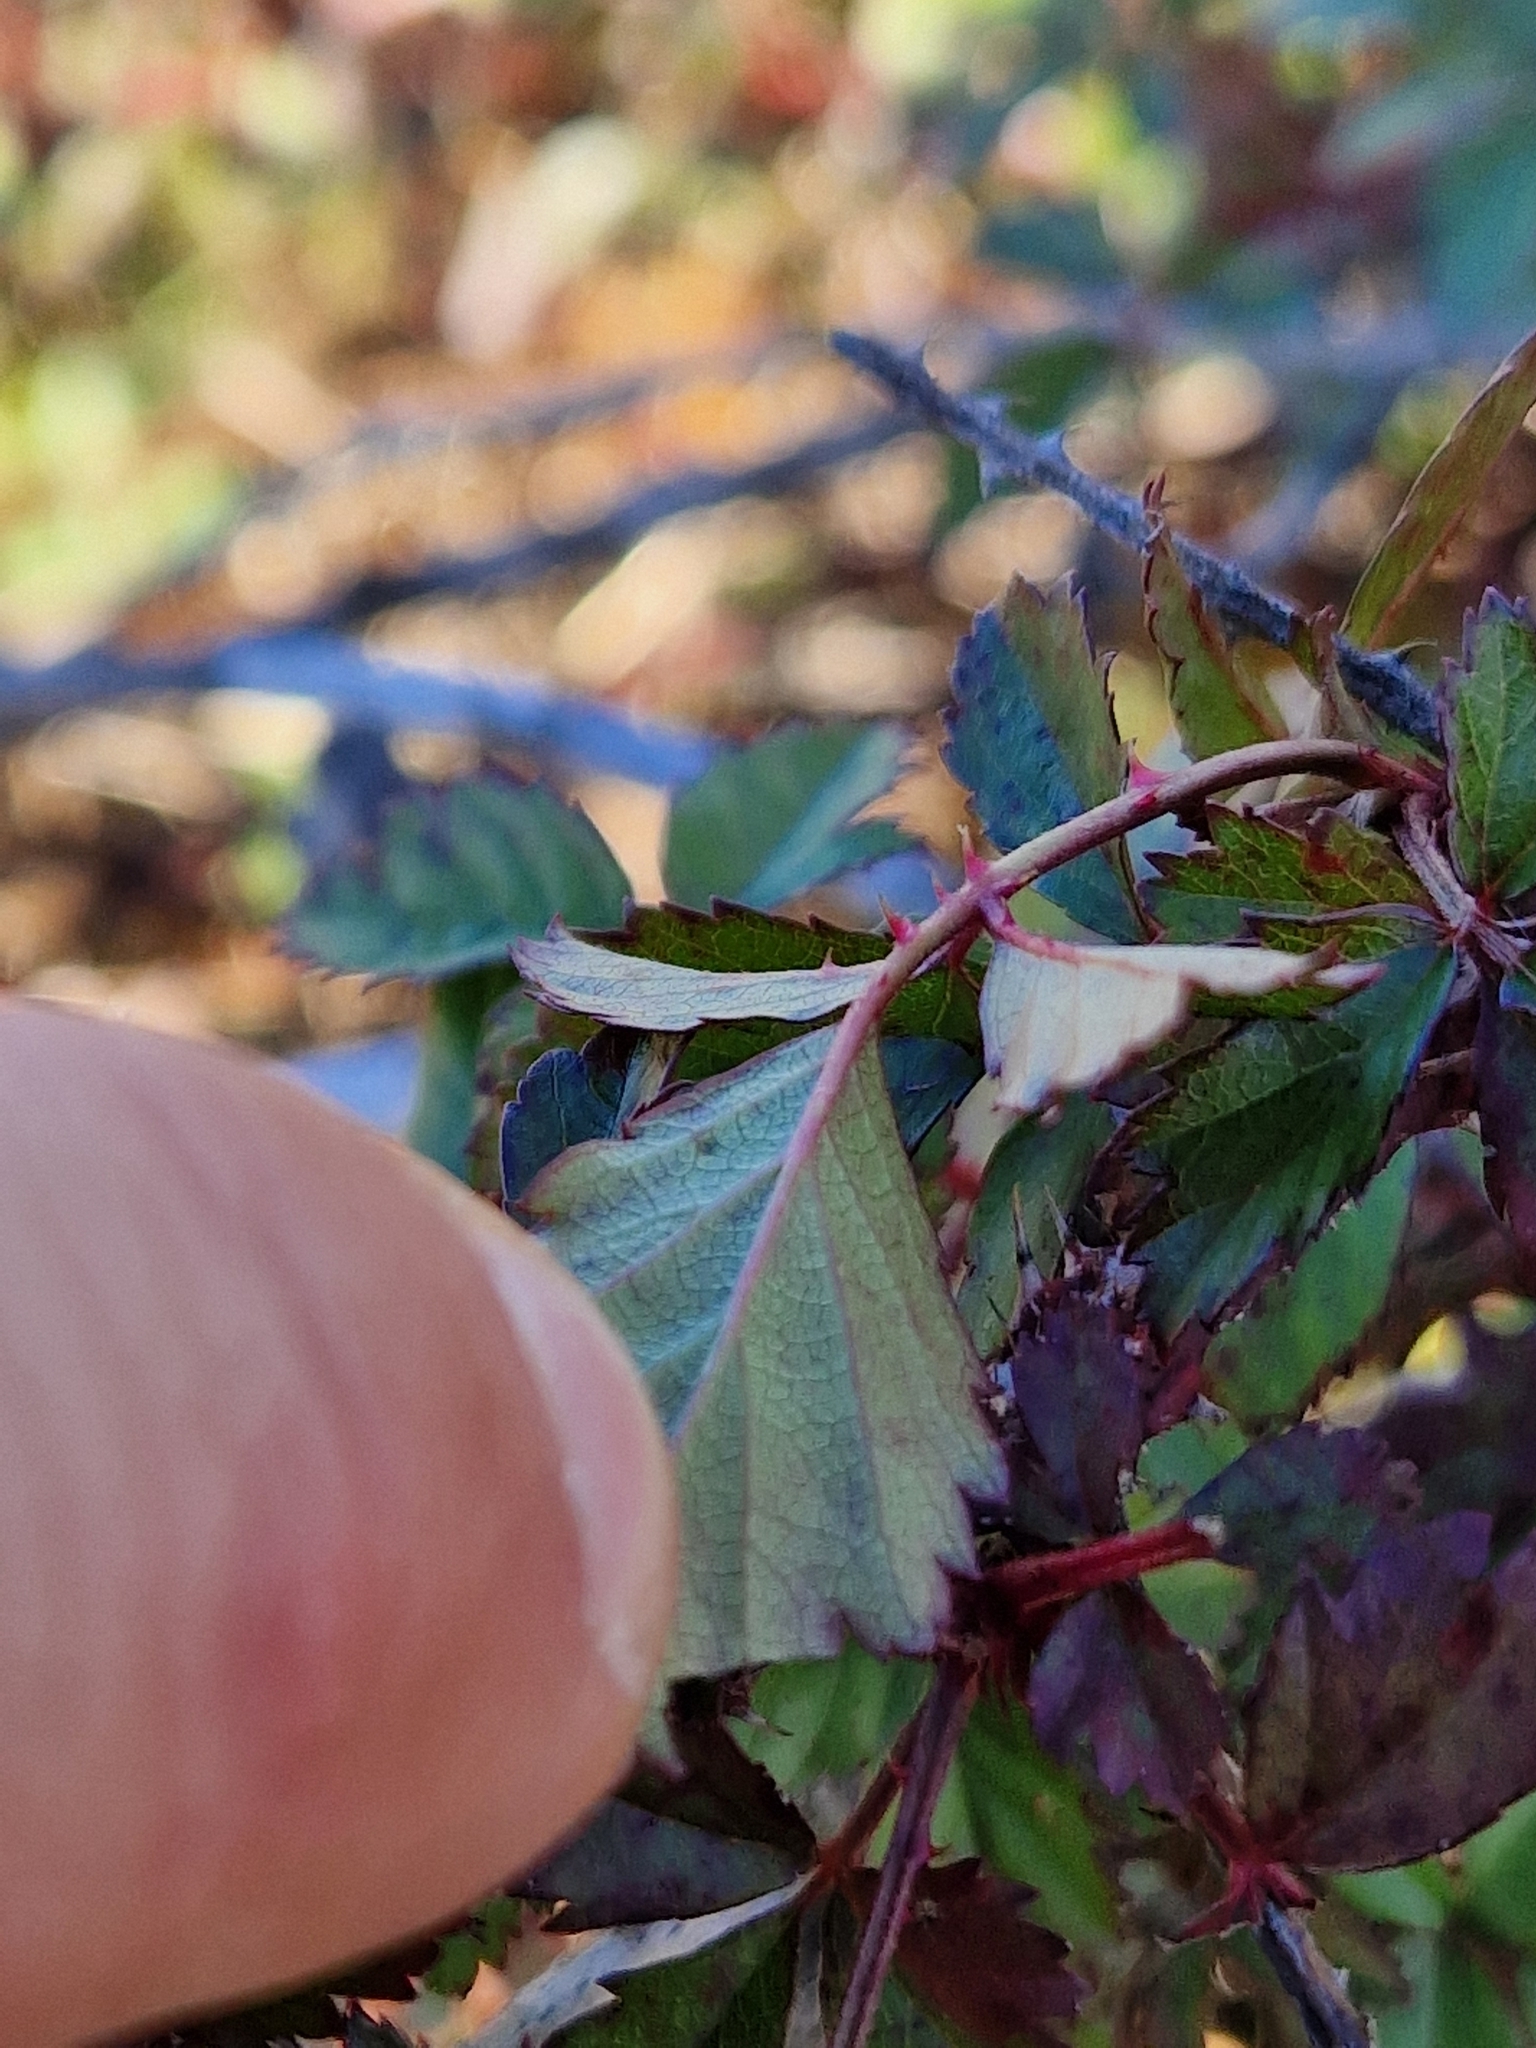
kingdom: Plantae
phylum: Tracheophyta
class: Magnoliopsida
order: Rosales
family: Rosaceae
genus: Rubus
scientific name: Rubus trivialis
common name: Southern dewberry
